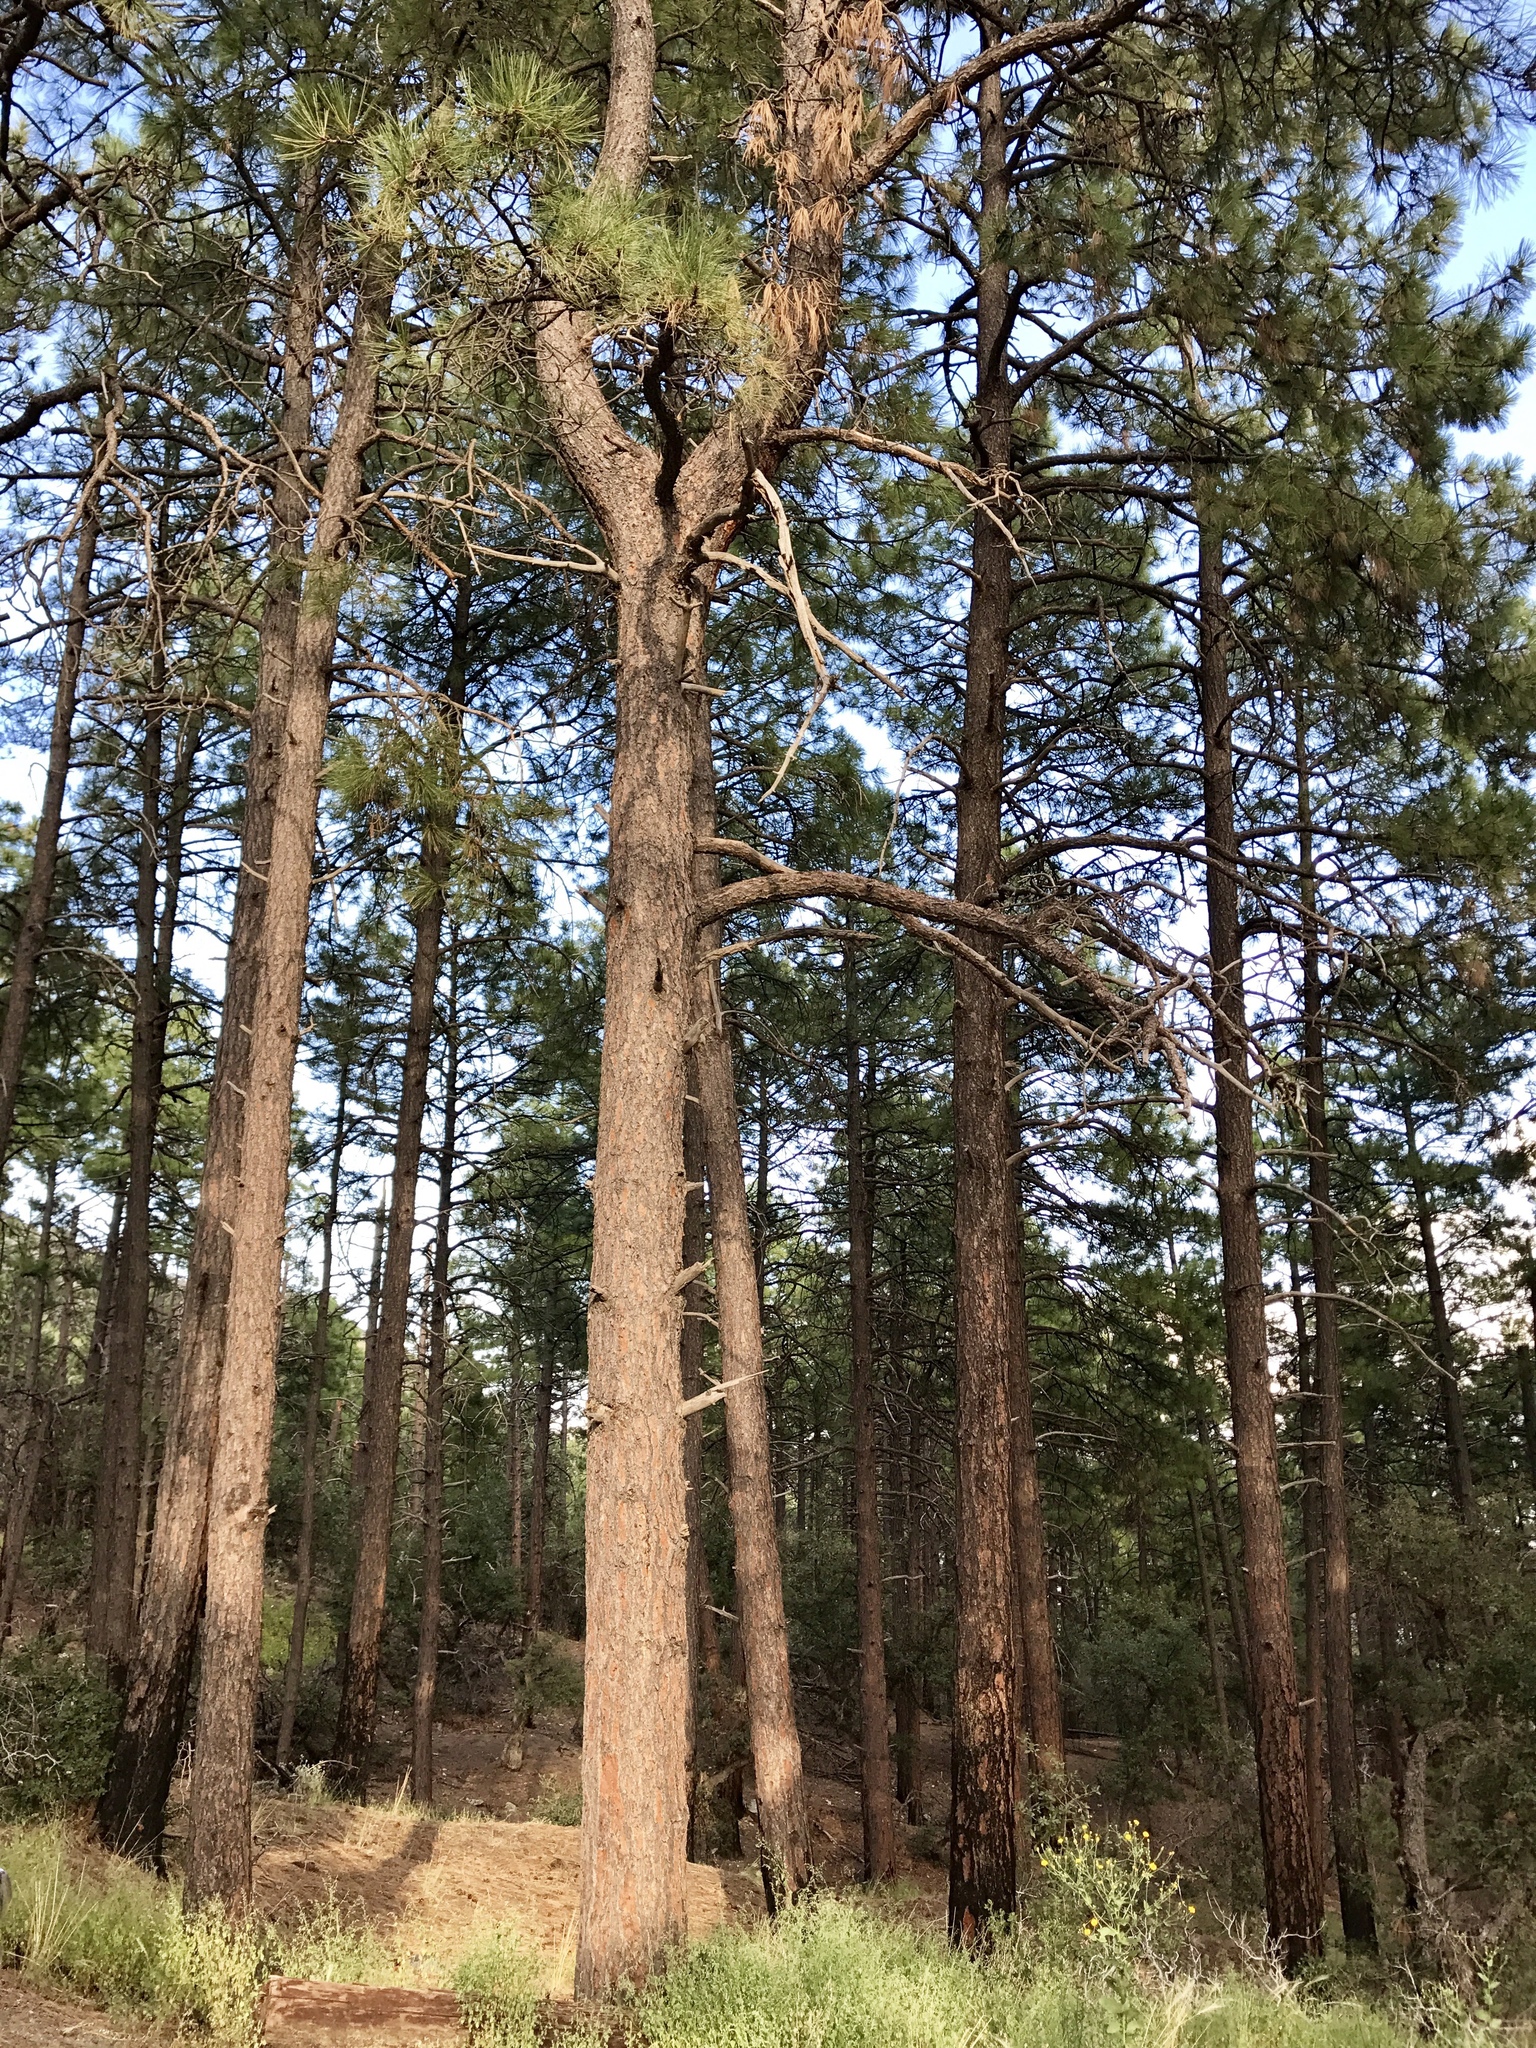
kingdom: Plantae
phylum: Tracheophyta
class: Pinopsida
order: Pinales
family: Pinaceae
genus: Pinus
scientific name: Pinus ponderosa
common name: Western yellow-pine
